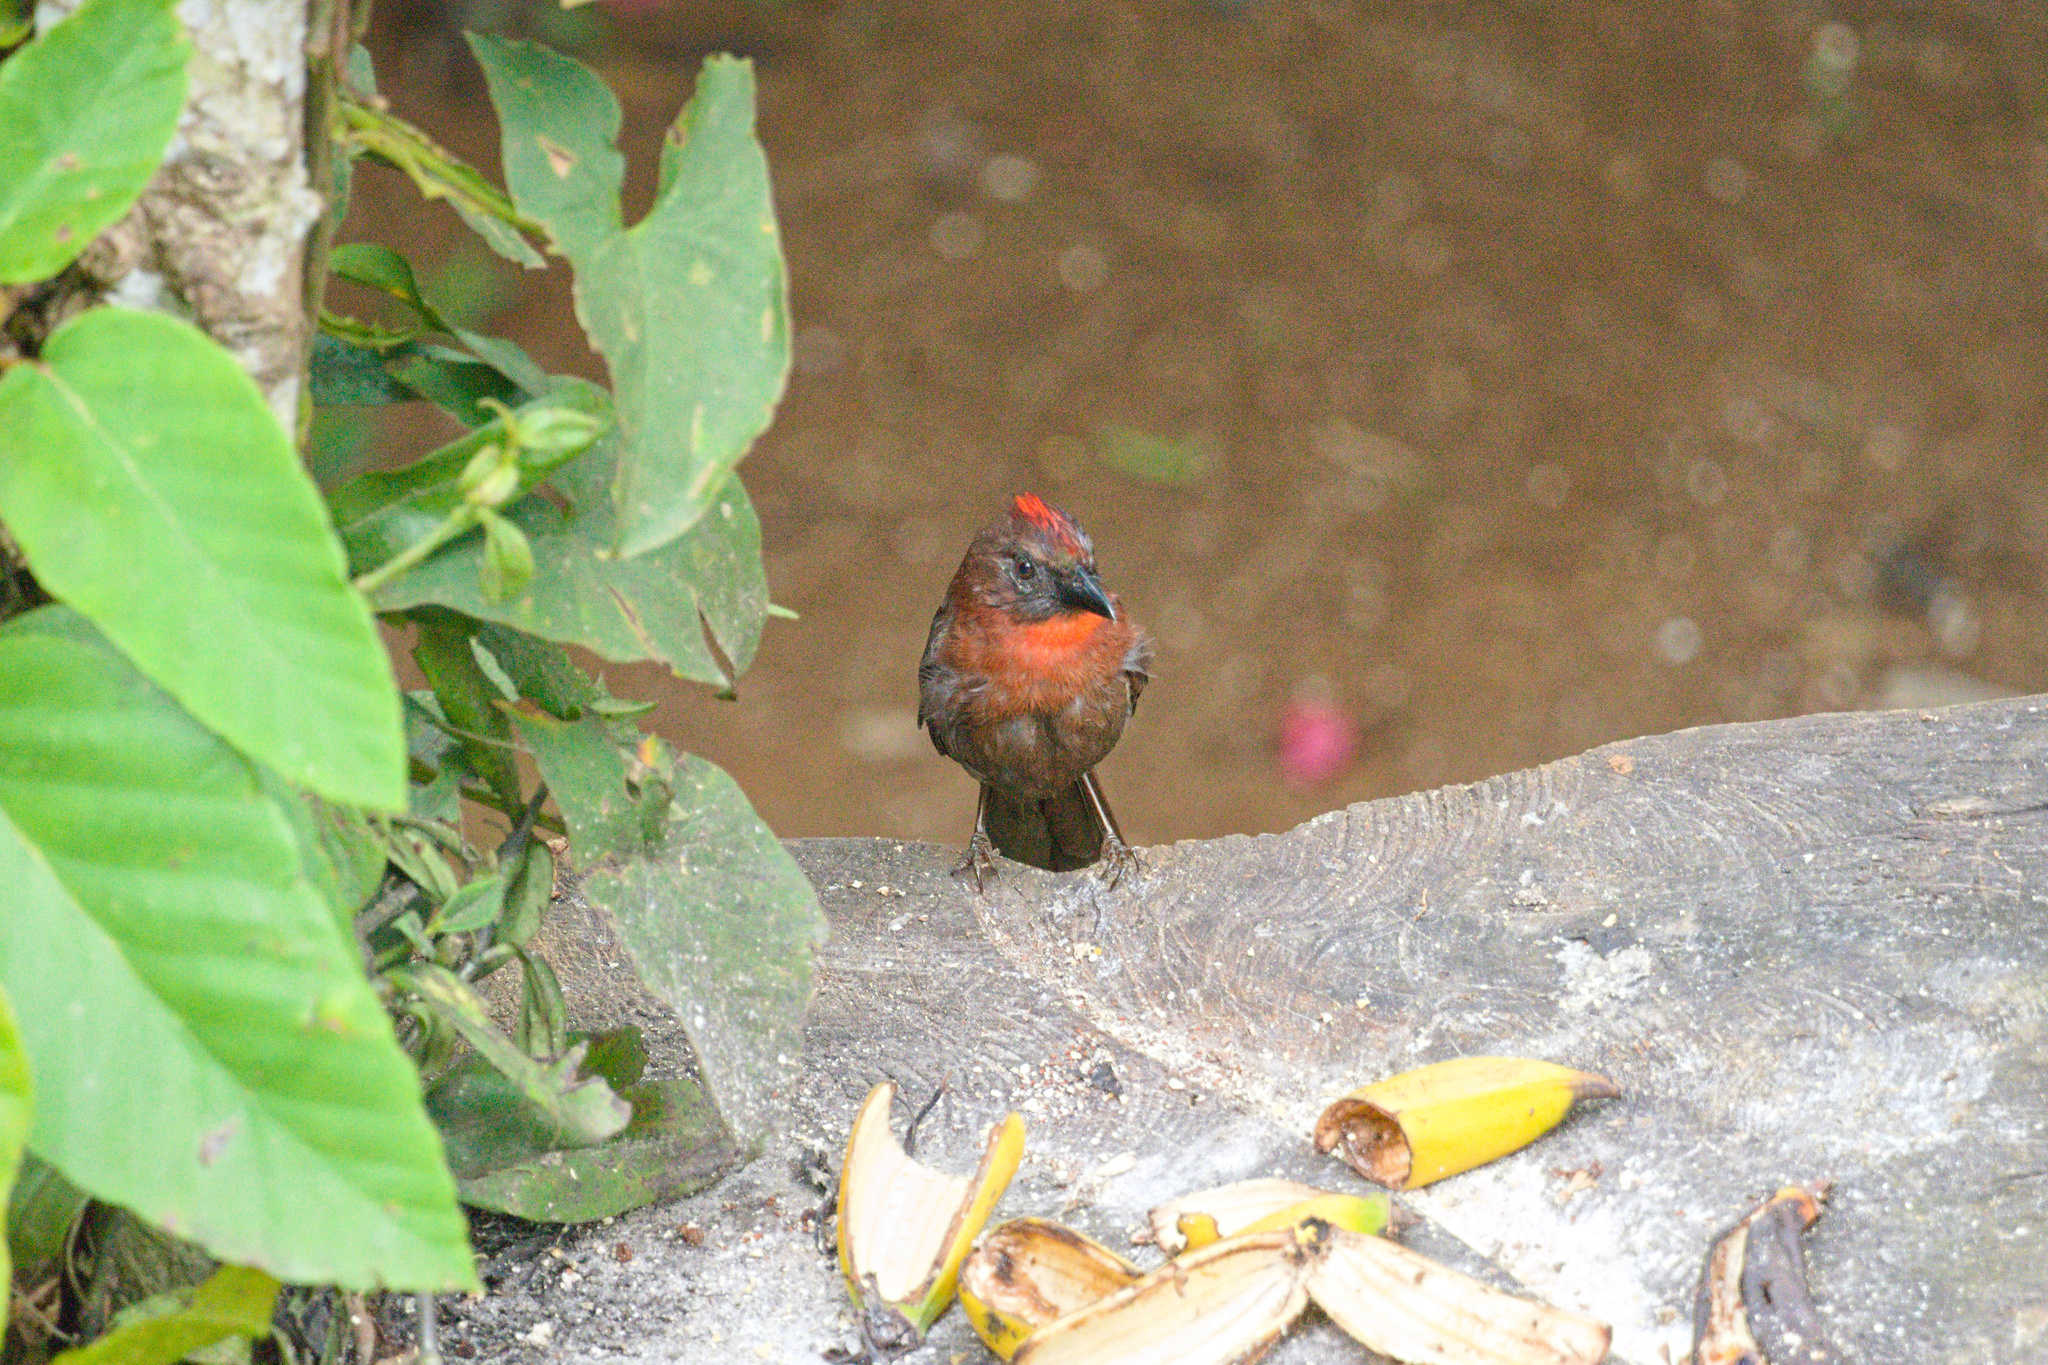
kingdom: Animalia
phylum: Chordata
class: Aves
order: Passeriformes
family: Cardinalidae
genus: Habia
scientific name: Habia fuscicauda
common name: Red-throated ant-tanager
